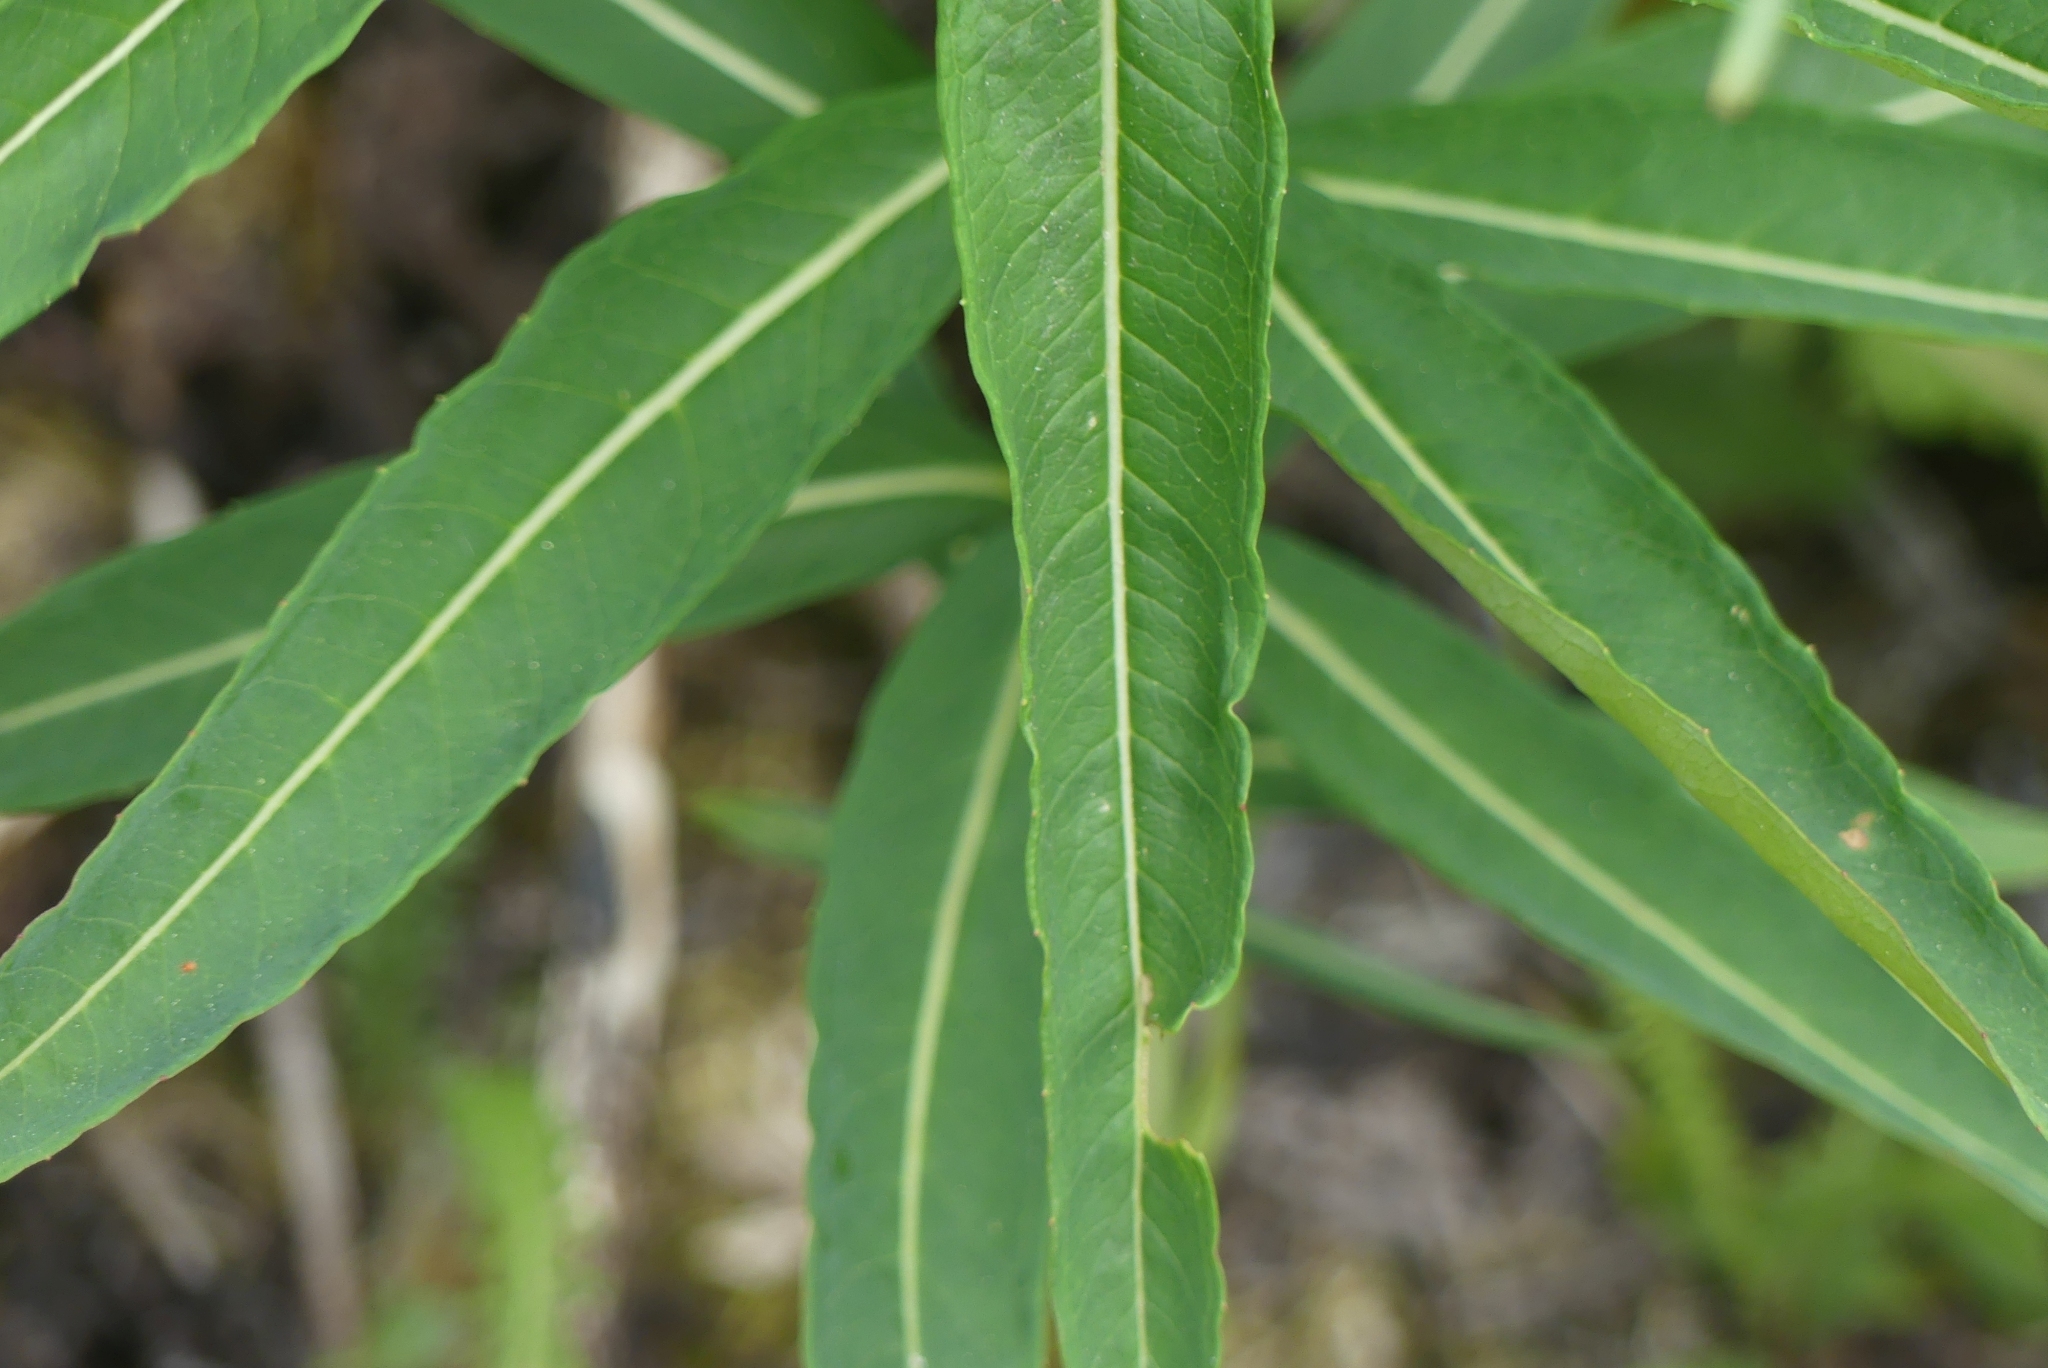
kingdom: Plantae
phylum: Tracheophyta
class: Magnoliopsida
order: Myrtales
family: Onagraceae
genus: Chamaenerion
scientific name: Chamaenerion angustifolium
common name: Fireweed
